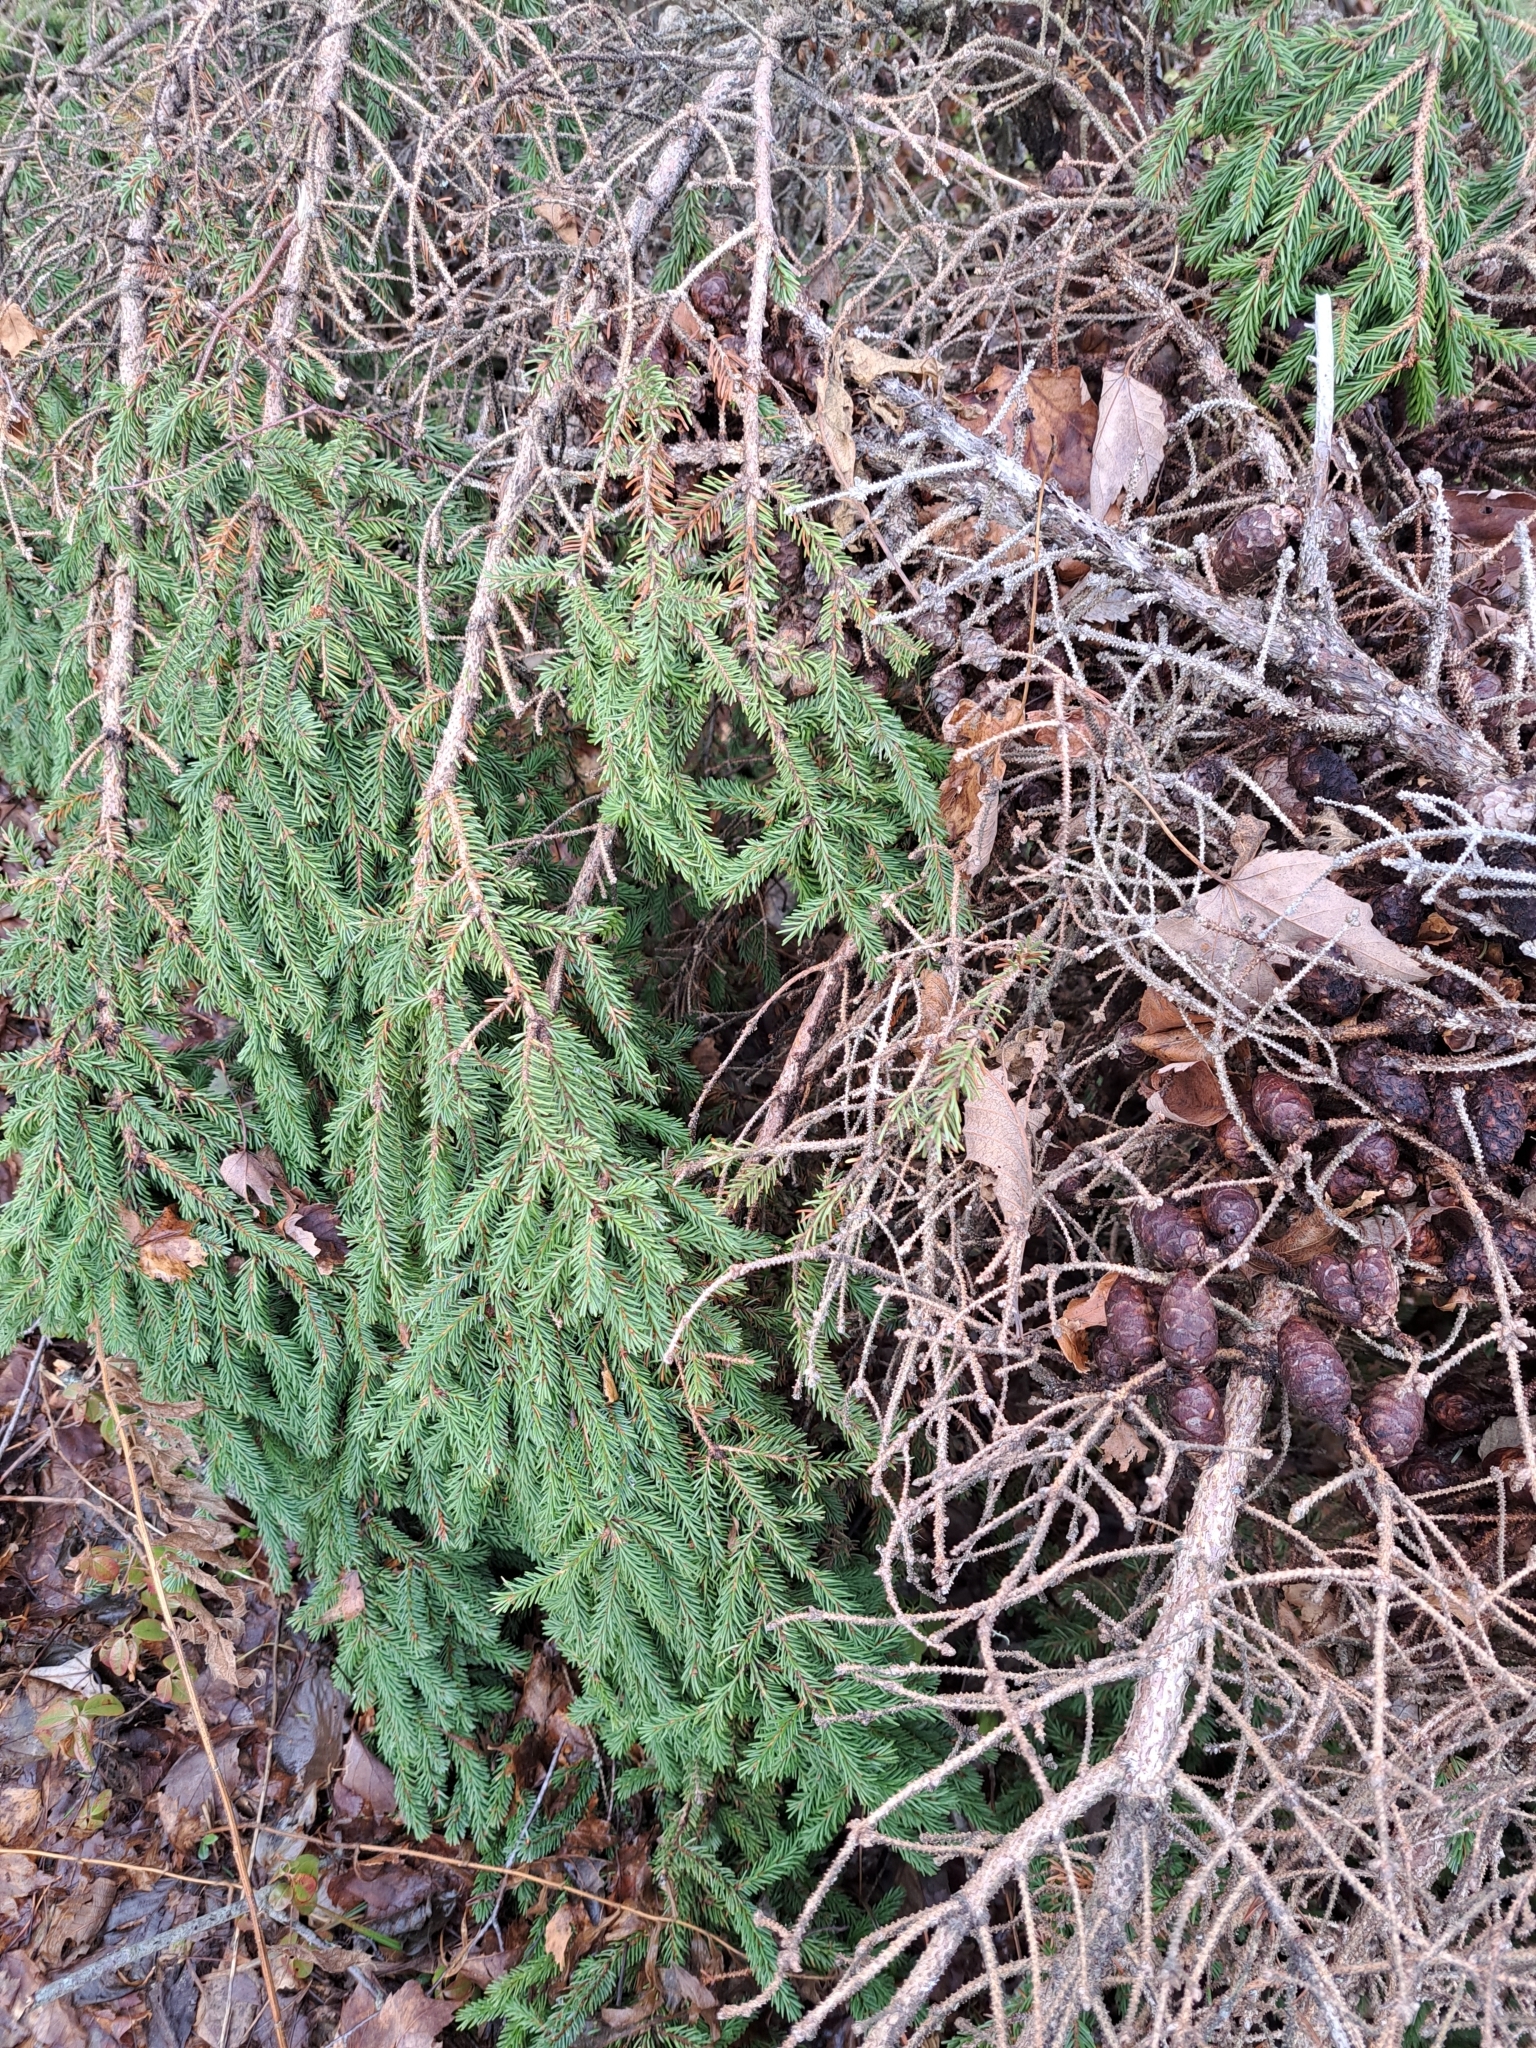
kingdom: Fungi
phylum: Basidiomycota
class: Pucciniomycetes
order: Pucciniales
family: Pucciniastraceae
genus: Melampsorella
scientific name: Melampsorella elatina
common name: Fir broom rust
